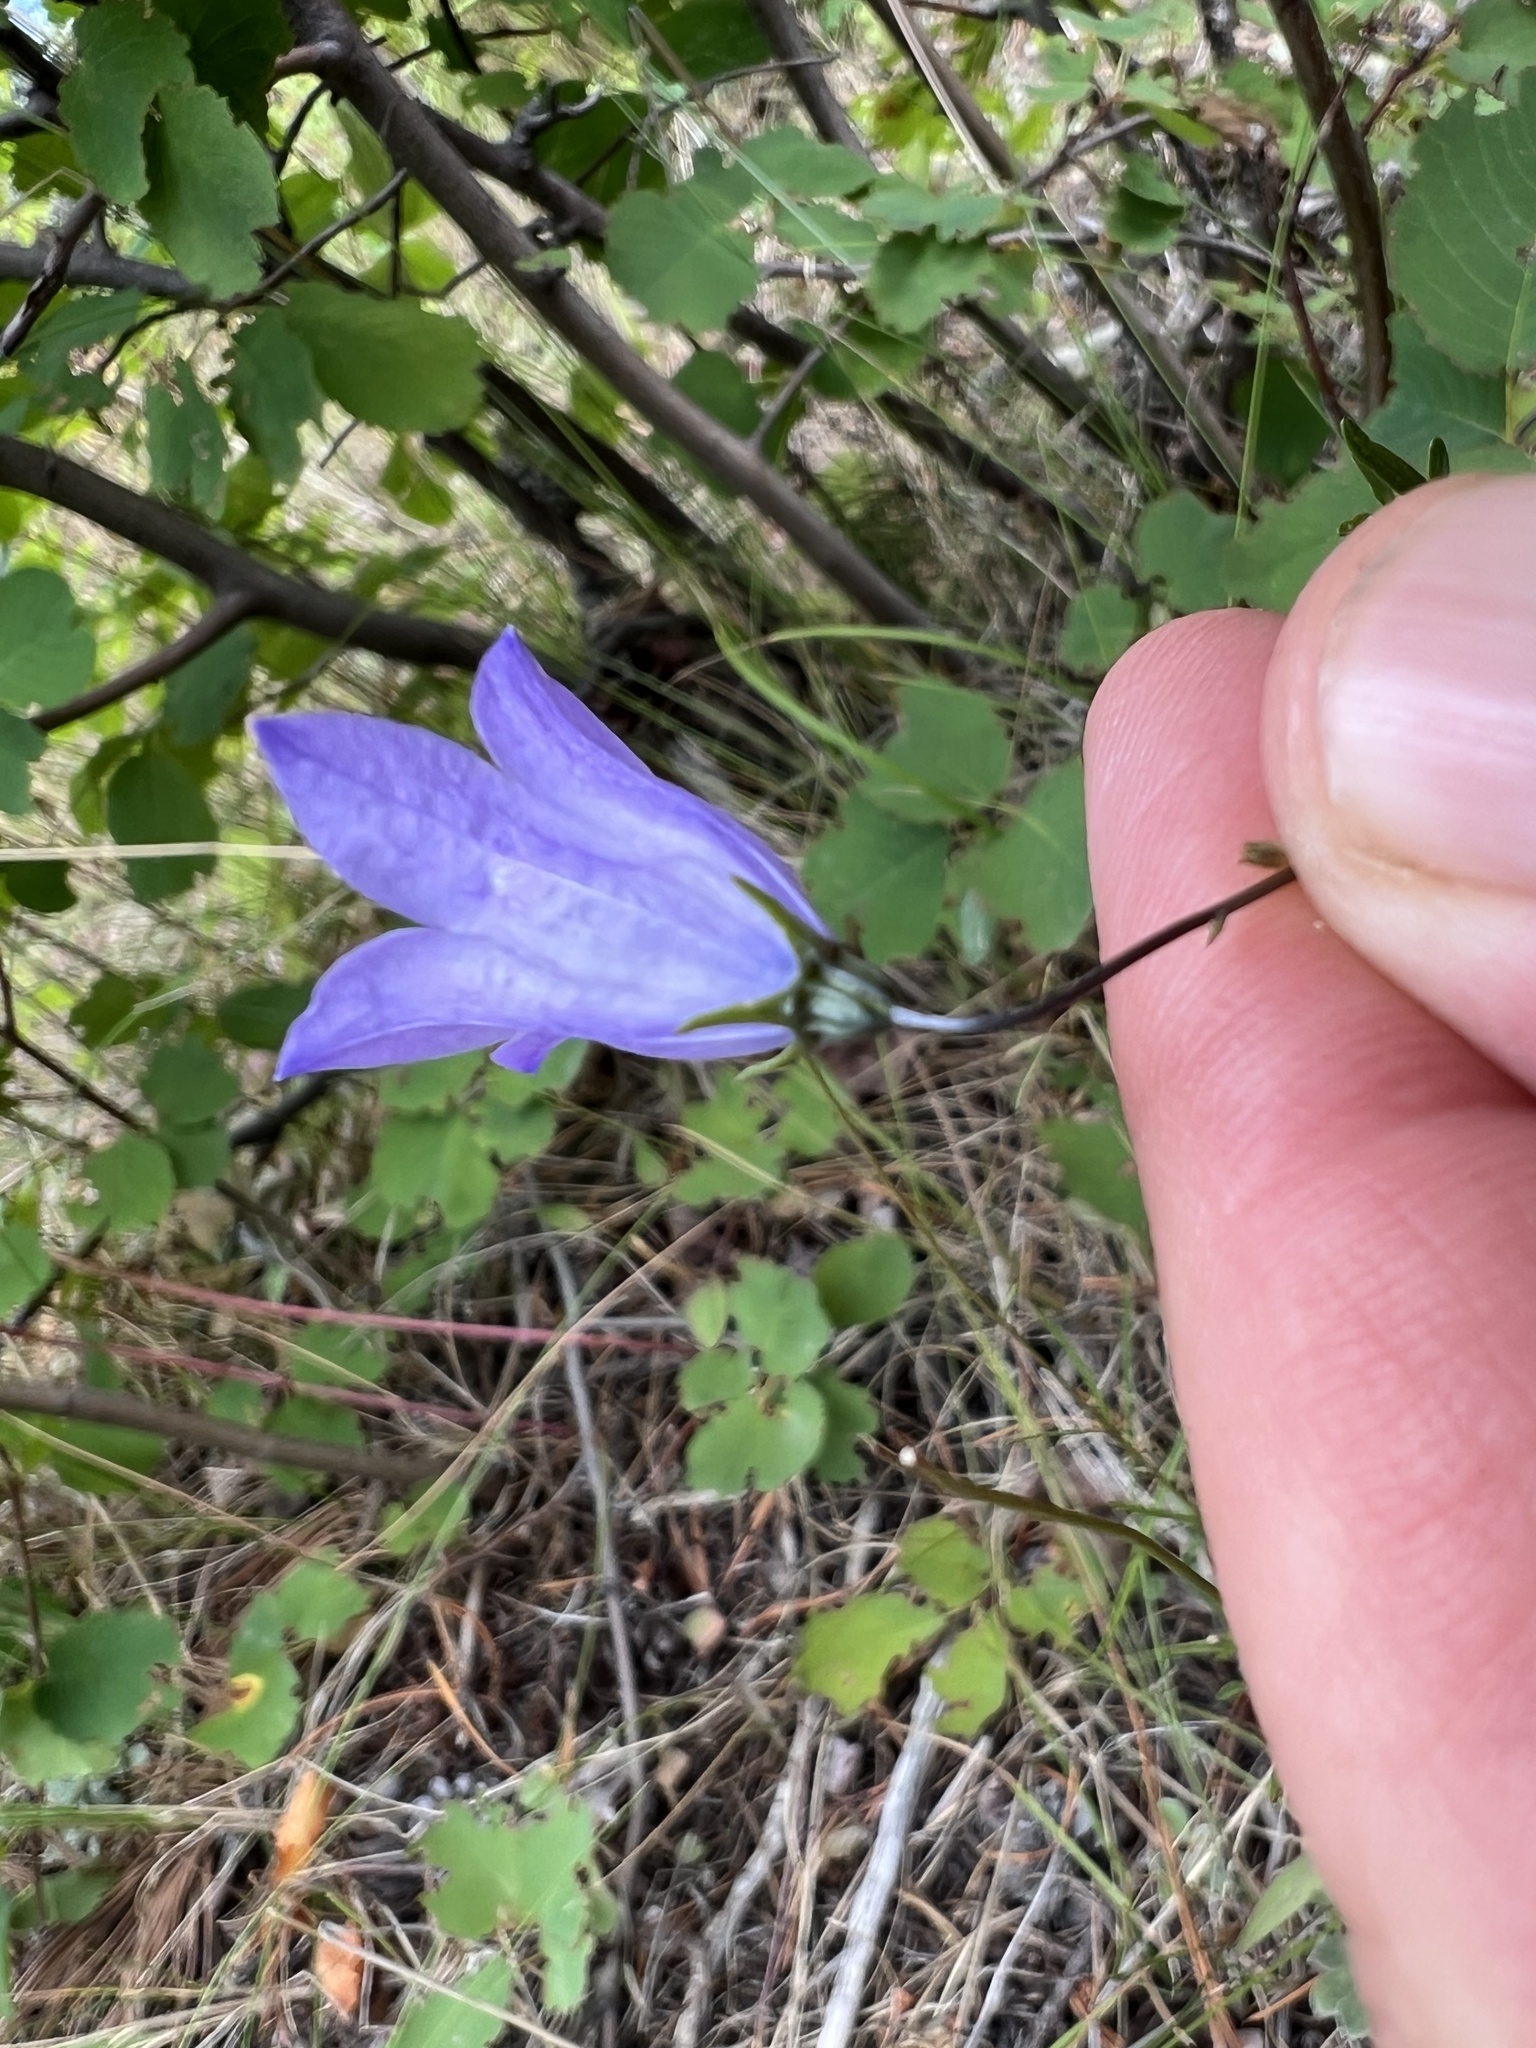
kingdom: Plantae
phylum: Tracheophyta
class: Magnoliopsida
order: Asterales
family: Campanulaceae
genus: Campanula
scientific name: Campanula alaskana
